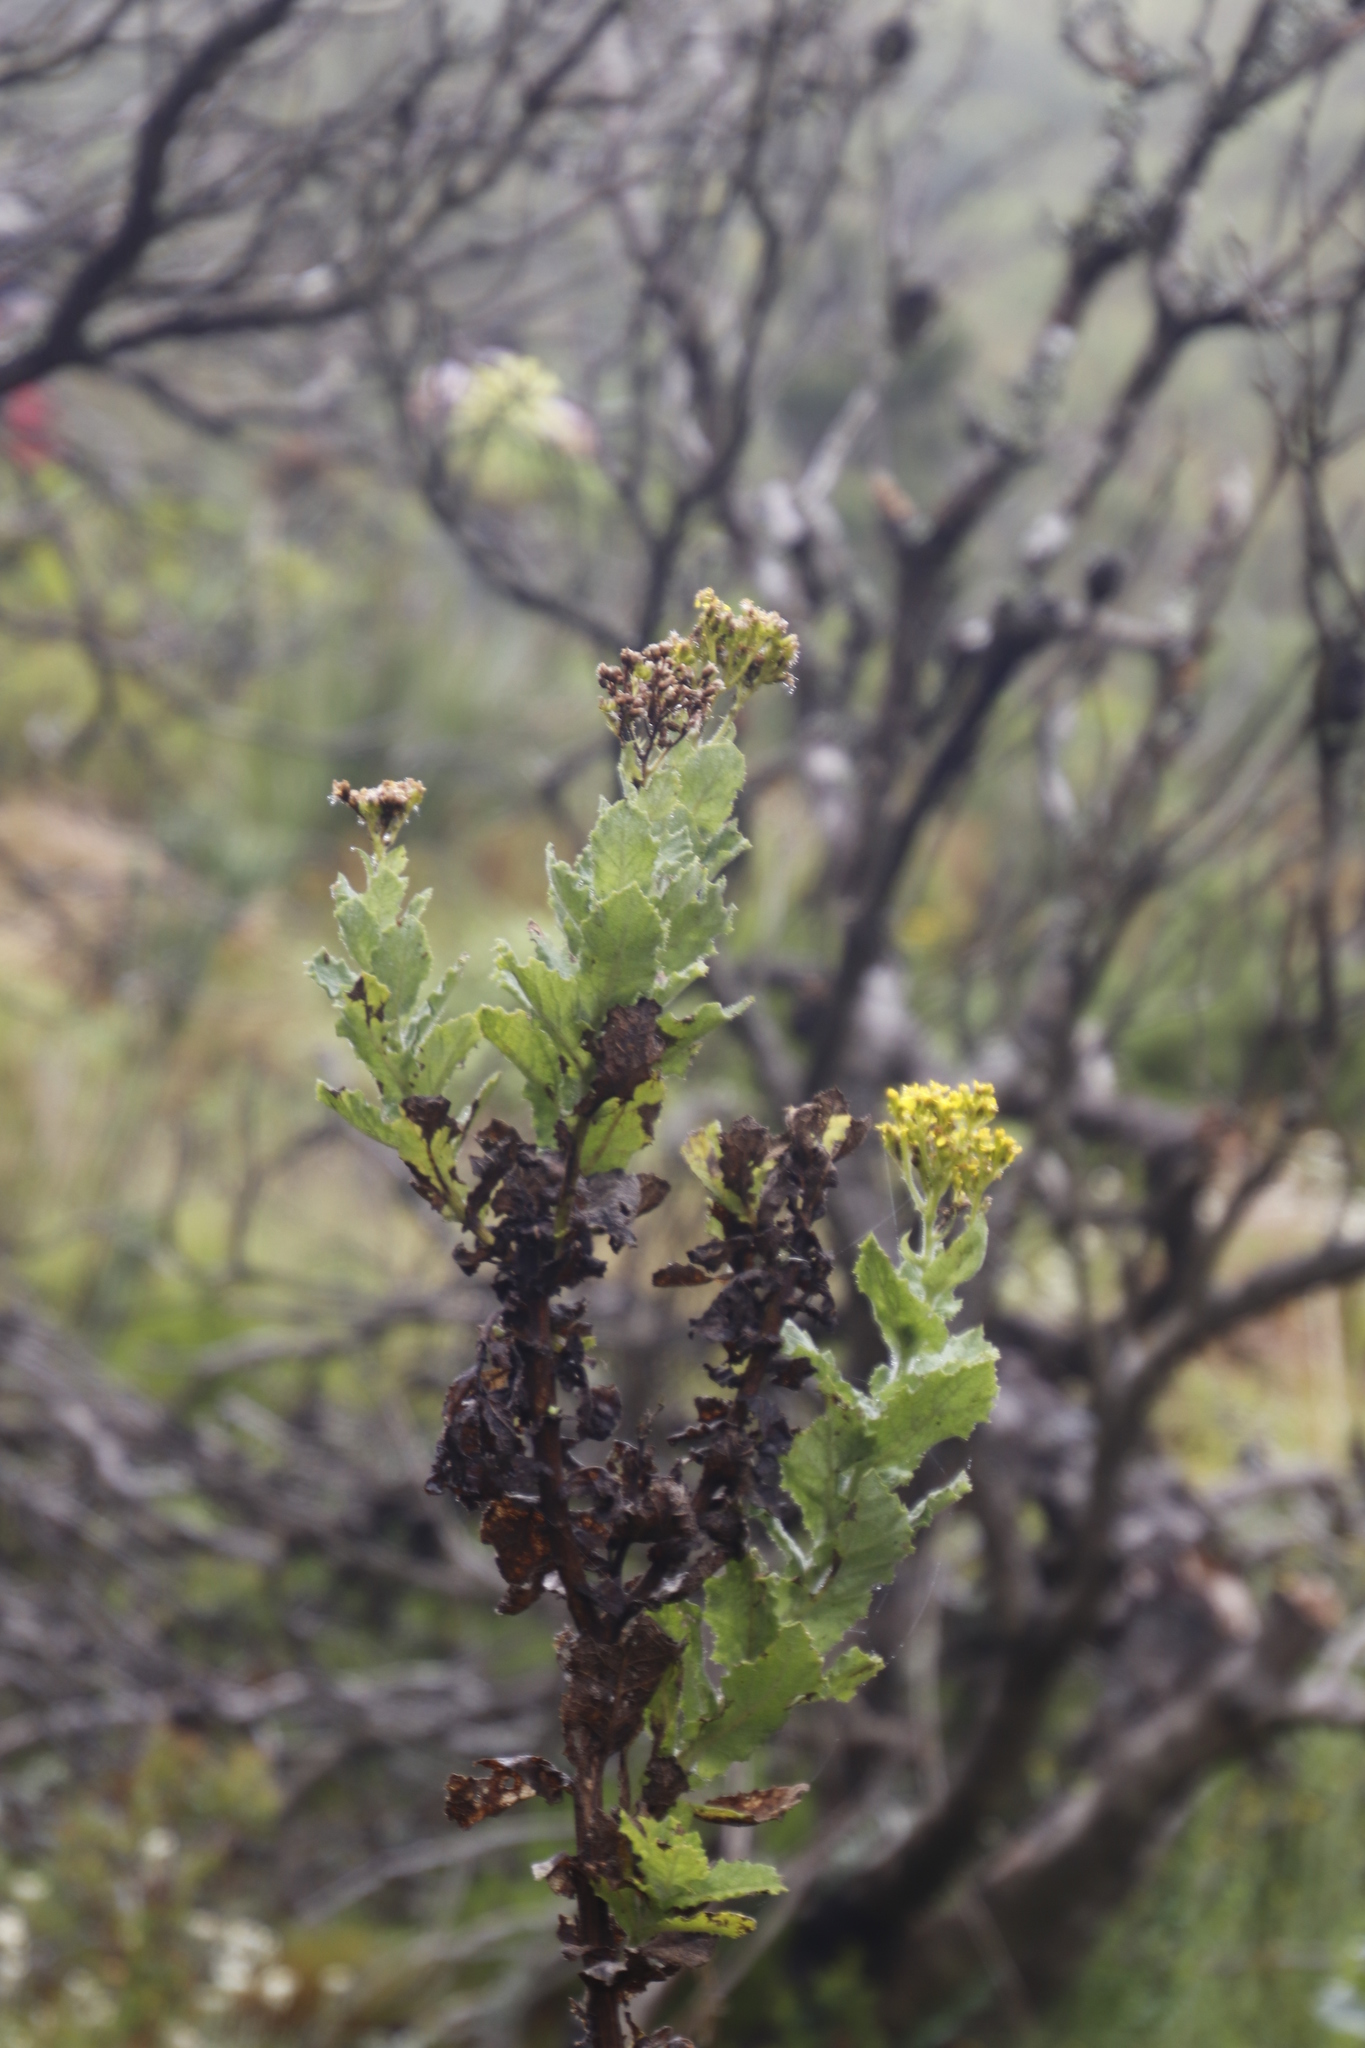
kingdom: Plantae
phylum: Tracheophyta
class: Magnoliopsida
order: Asterales
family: Asteraceae
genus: Senecio
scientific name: Senecio rigidus
